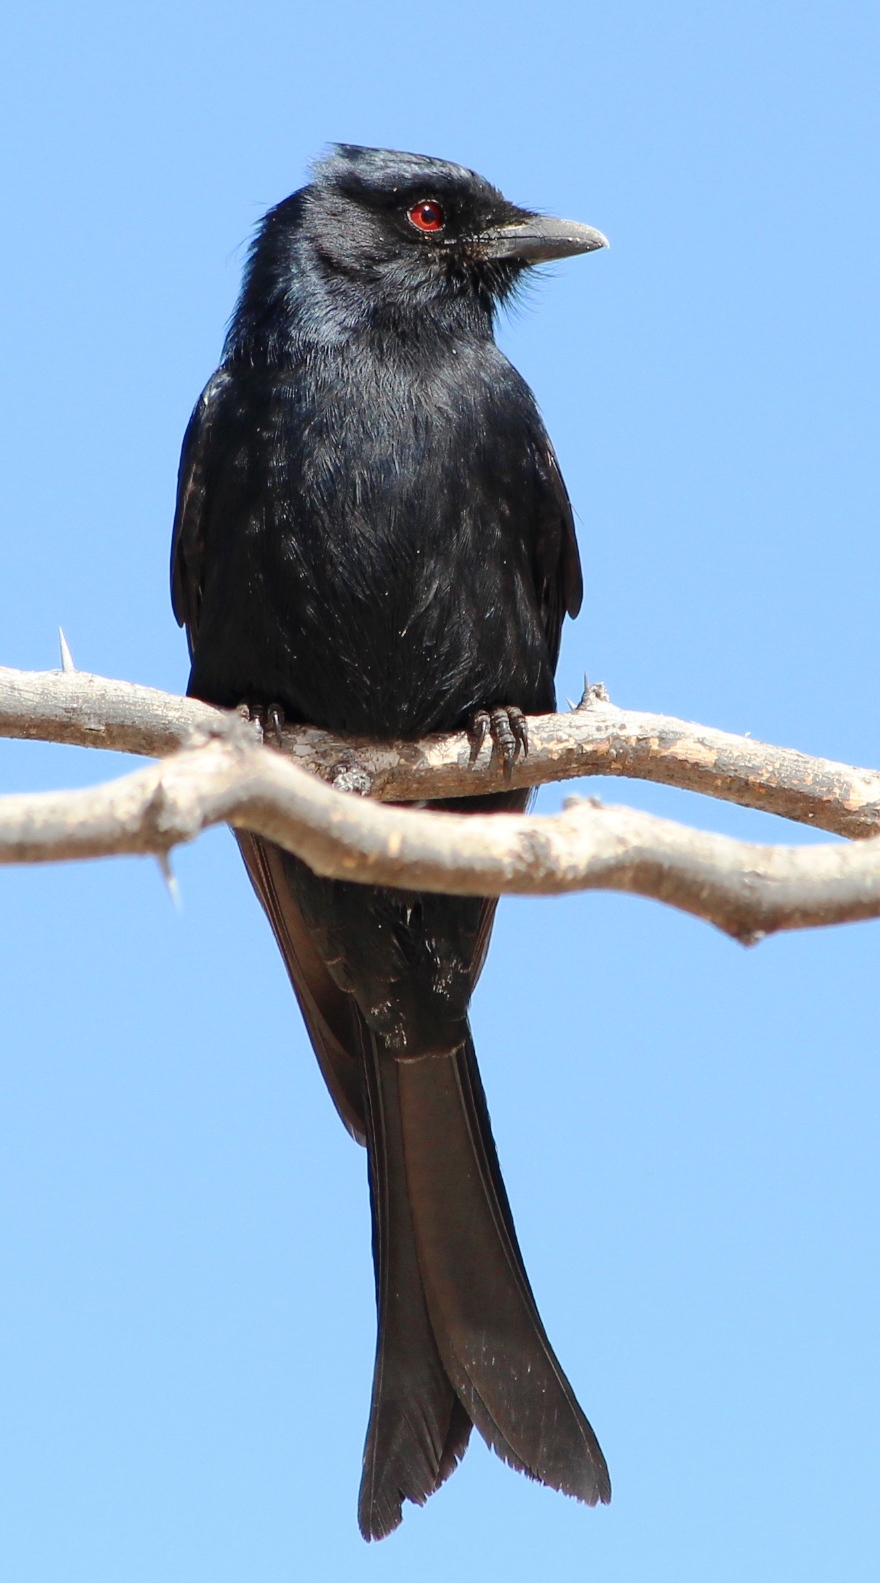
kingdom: Animalia
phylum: Chordata
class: Aves
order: Passeriformes
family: Dicruridae
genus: Dicrurus
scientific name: Dicrurus adsimilis
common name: Fork-tailed drongo
